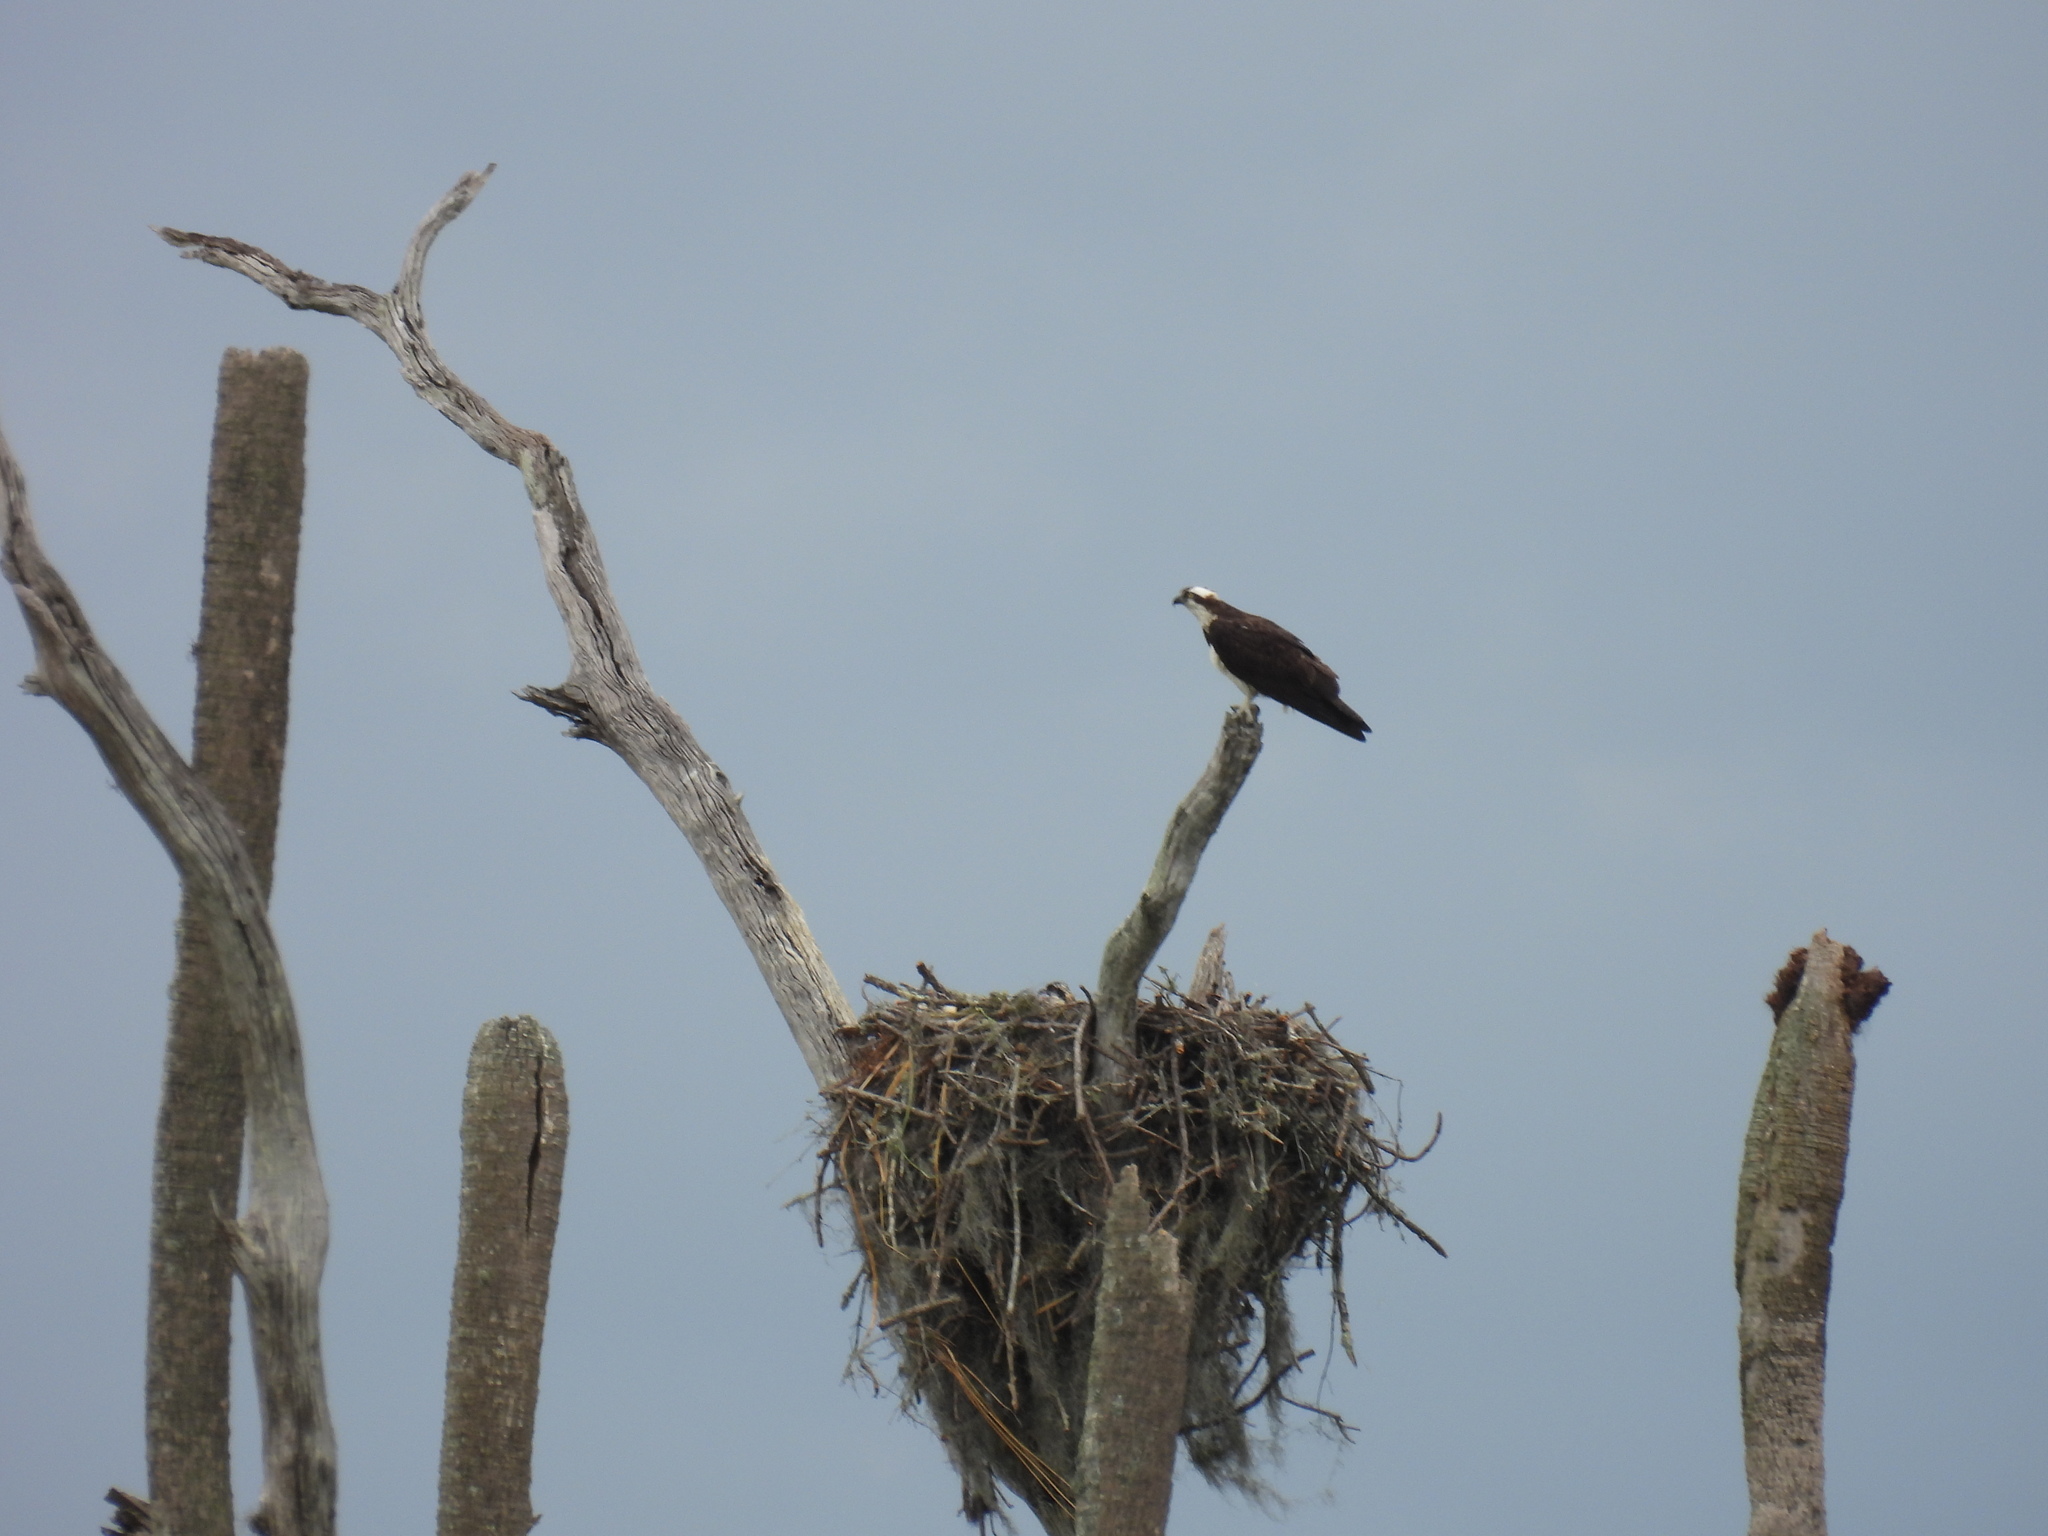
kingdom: Animalia
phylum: Chordata
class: Aves
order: Accipitriformes
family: Pandionidae
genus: Pandion
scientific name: Pandion haliaetus
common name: Osprey
